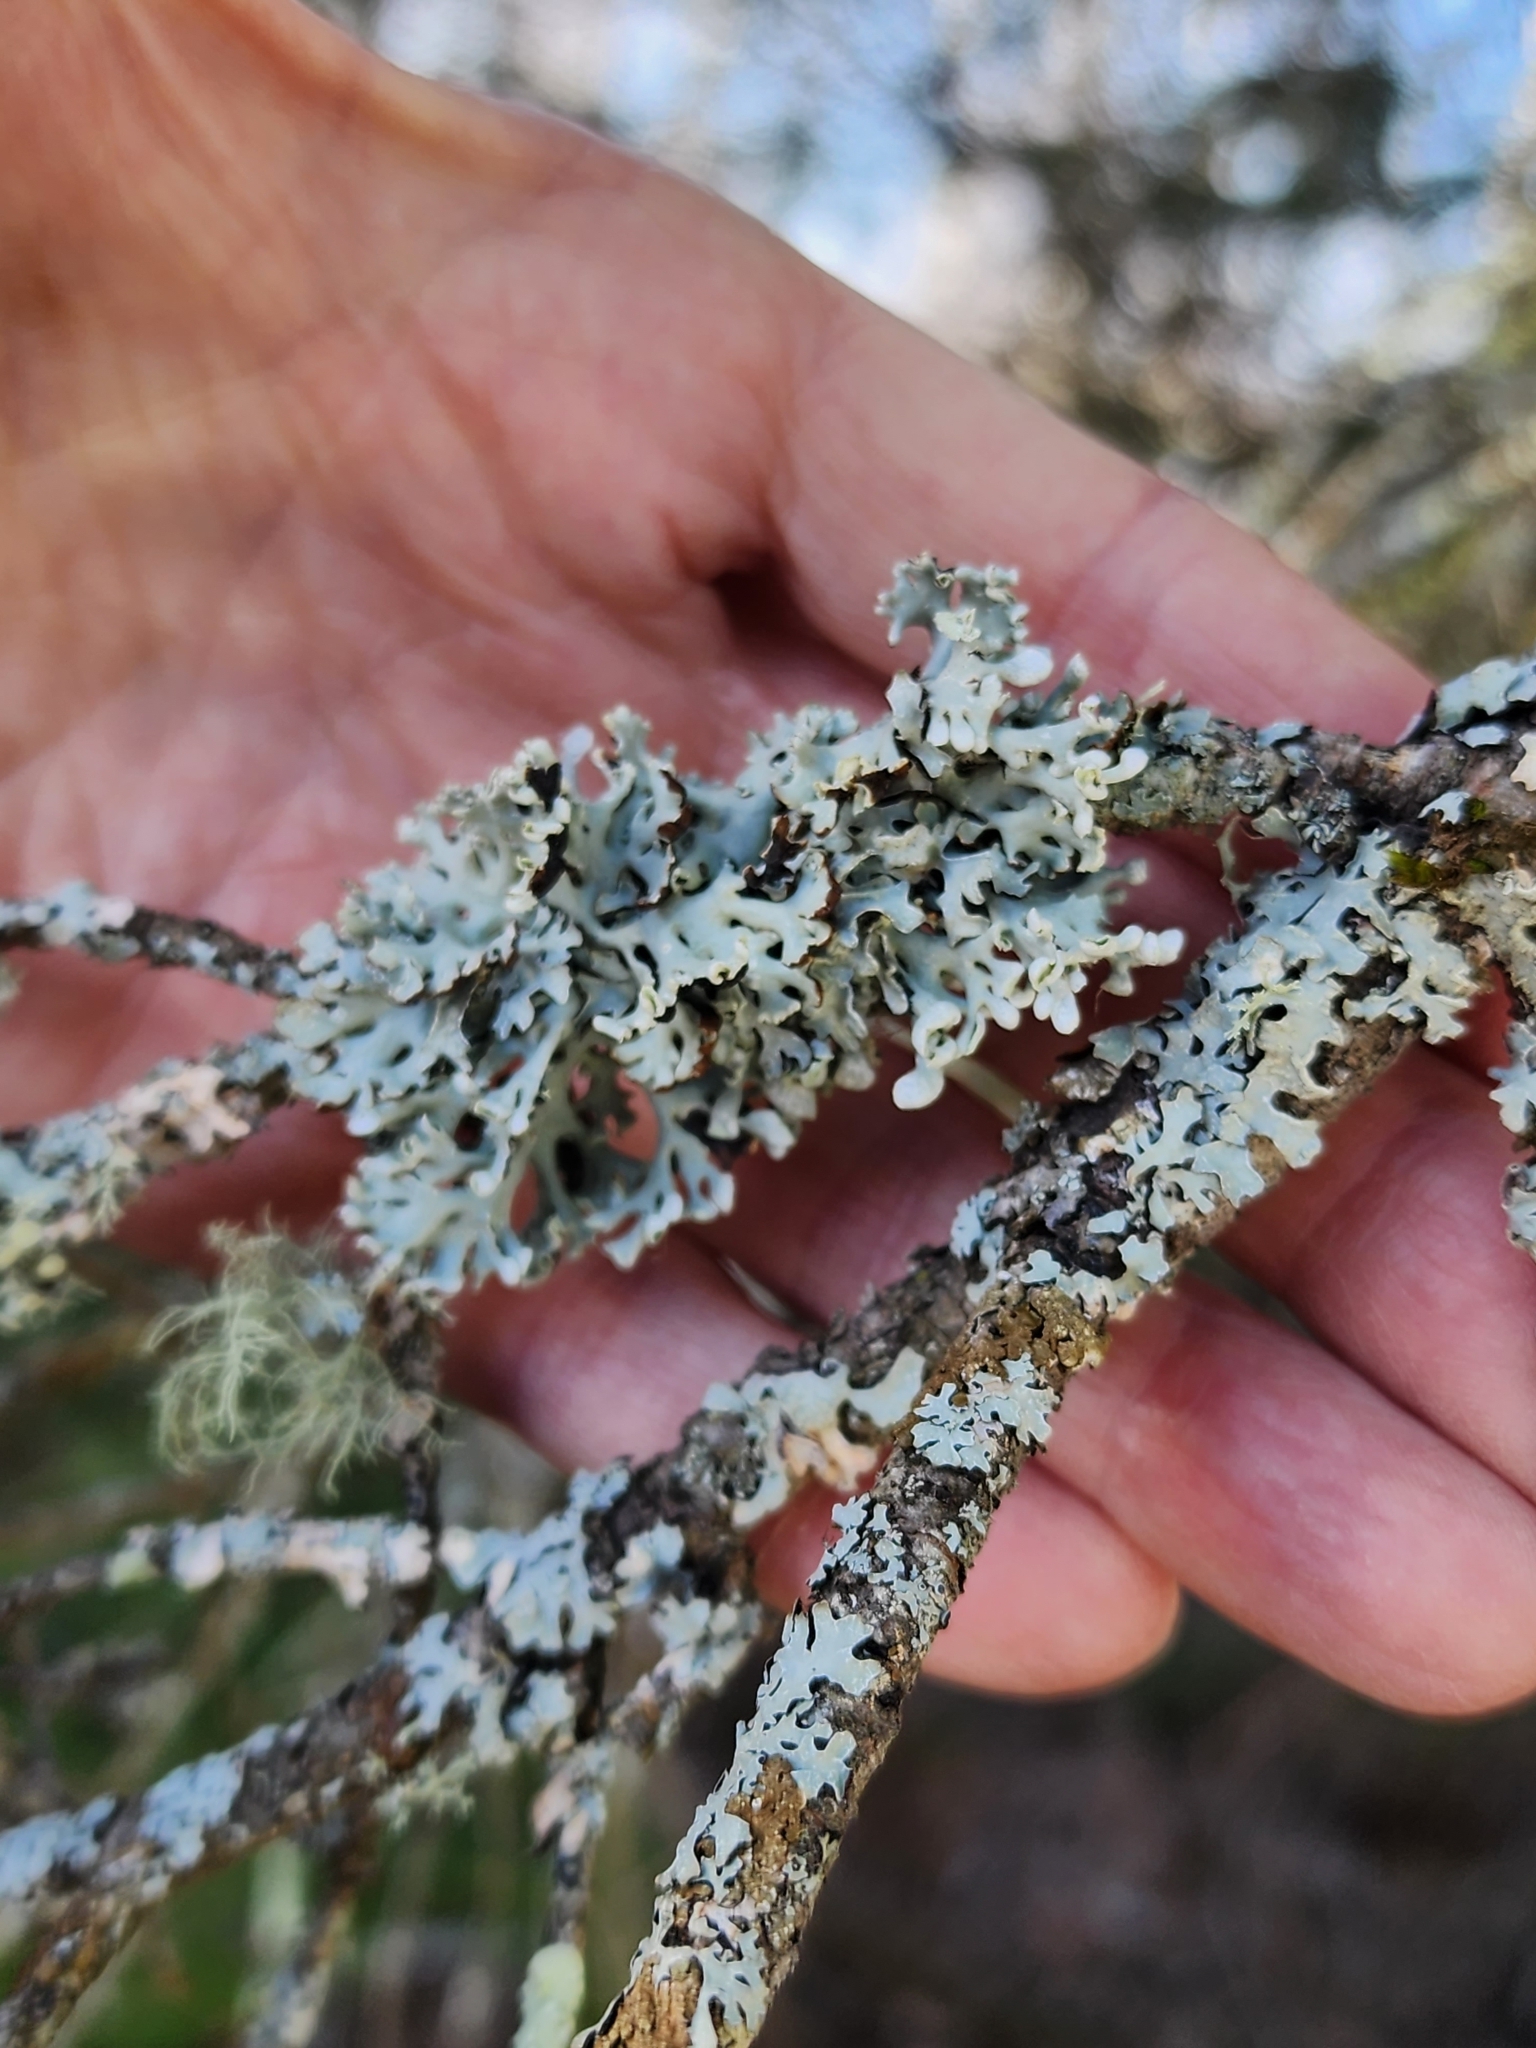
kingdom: Fungi
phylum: Ascomycota
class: Lecanoromycetes
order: Lecanorales
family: Parmeliaceae
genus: Hypogymnia
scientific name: Hypogymnia physodes
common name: Dark crottle
